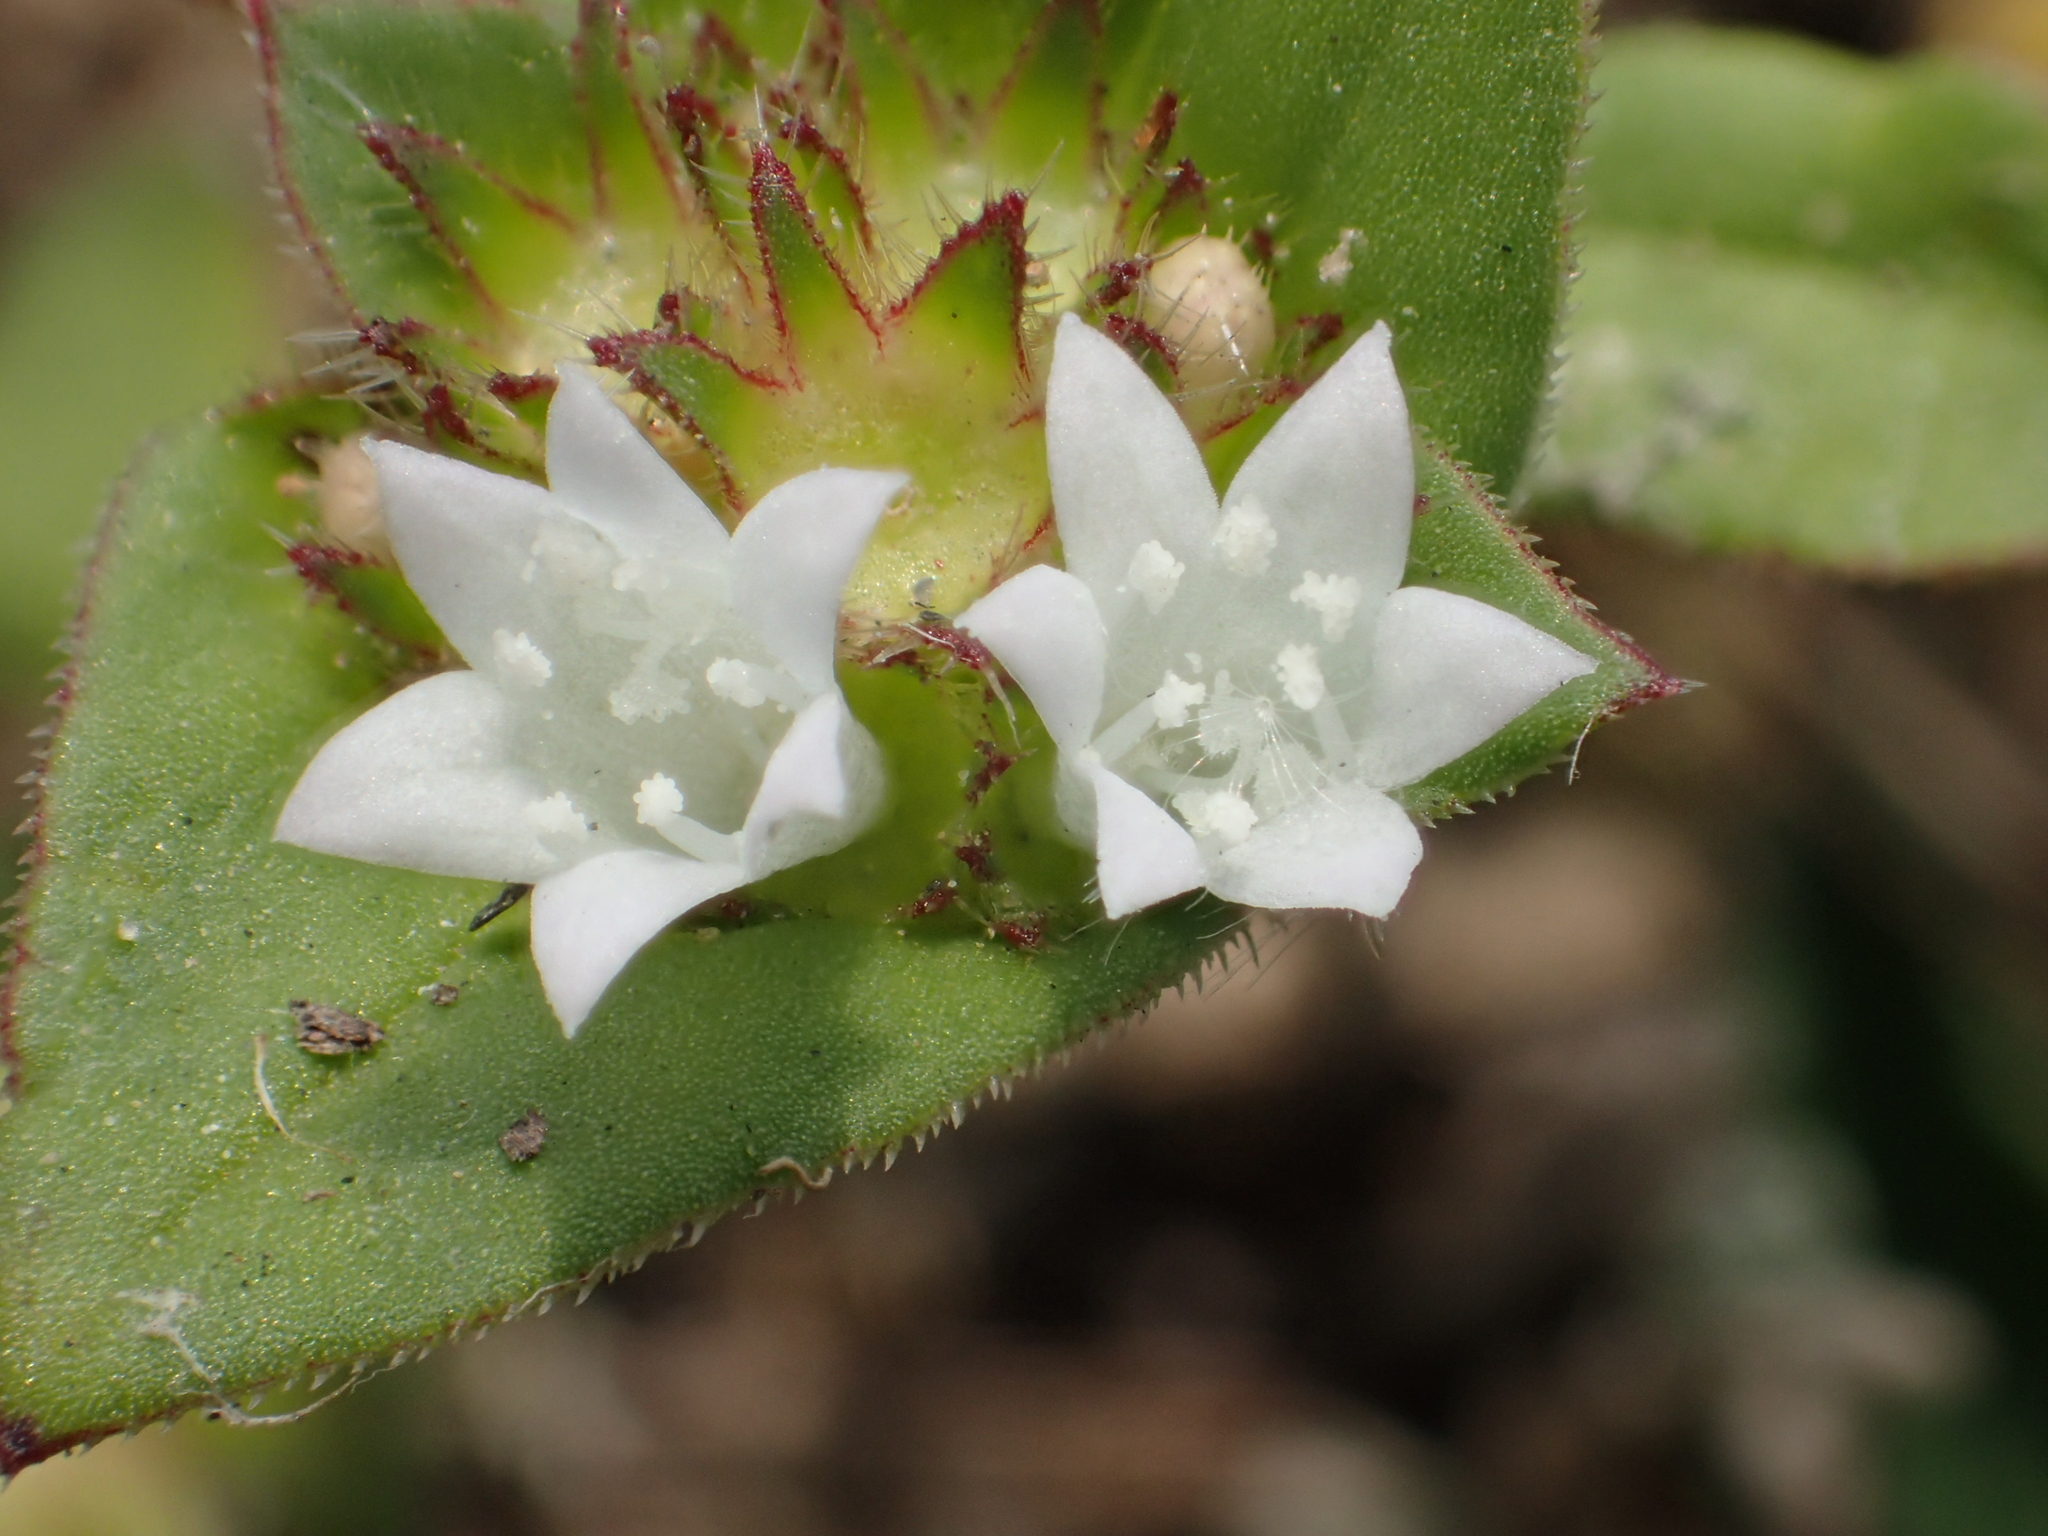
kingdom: Plantae
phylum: Tracheophyta
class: Magnoliopsida
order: Gentianales
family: Rubiaceae
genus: Richardia
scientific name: Richardia scabra
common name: Rough mexican clover
